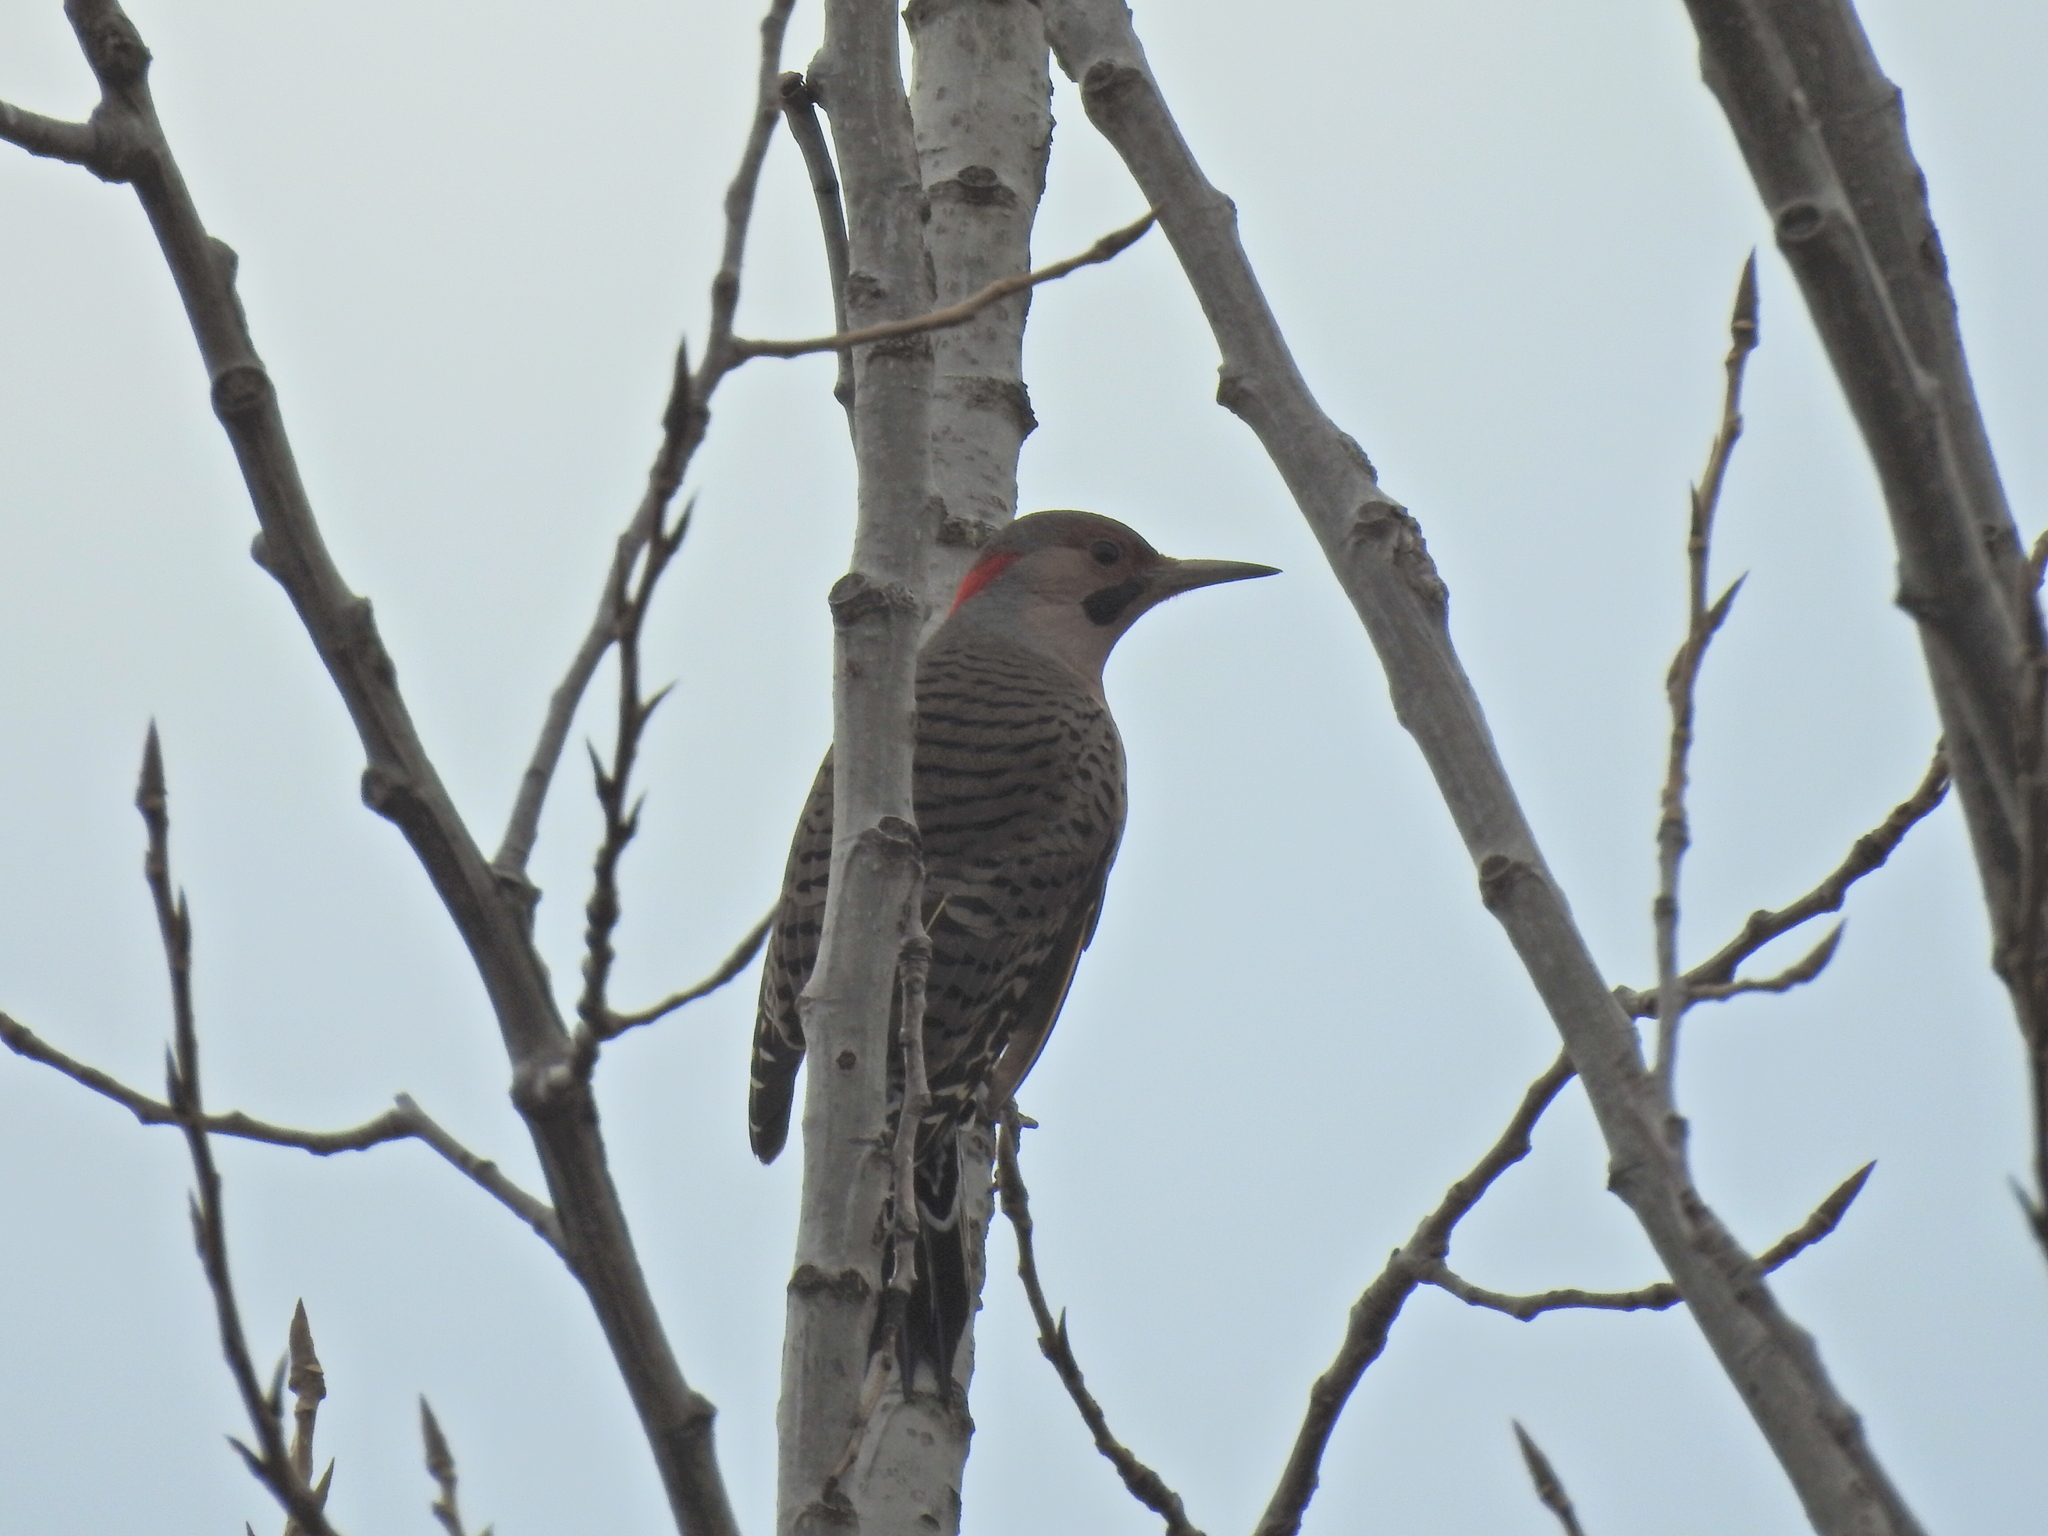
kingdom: Animalia
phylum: Chordata
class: Aves
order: Piciformes
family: Picidae
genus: Colaptes
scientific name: Colaptes auratus
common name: Northern flicker
